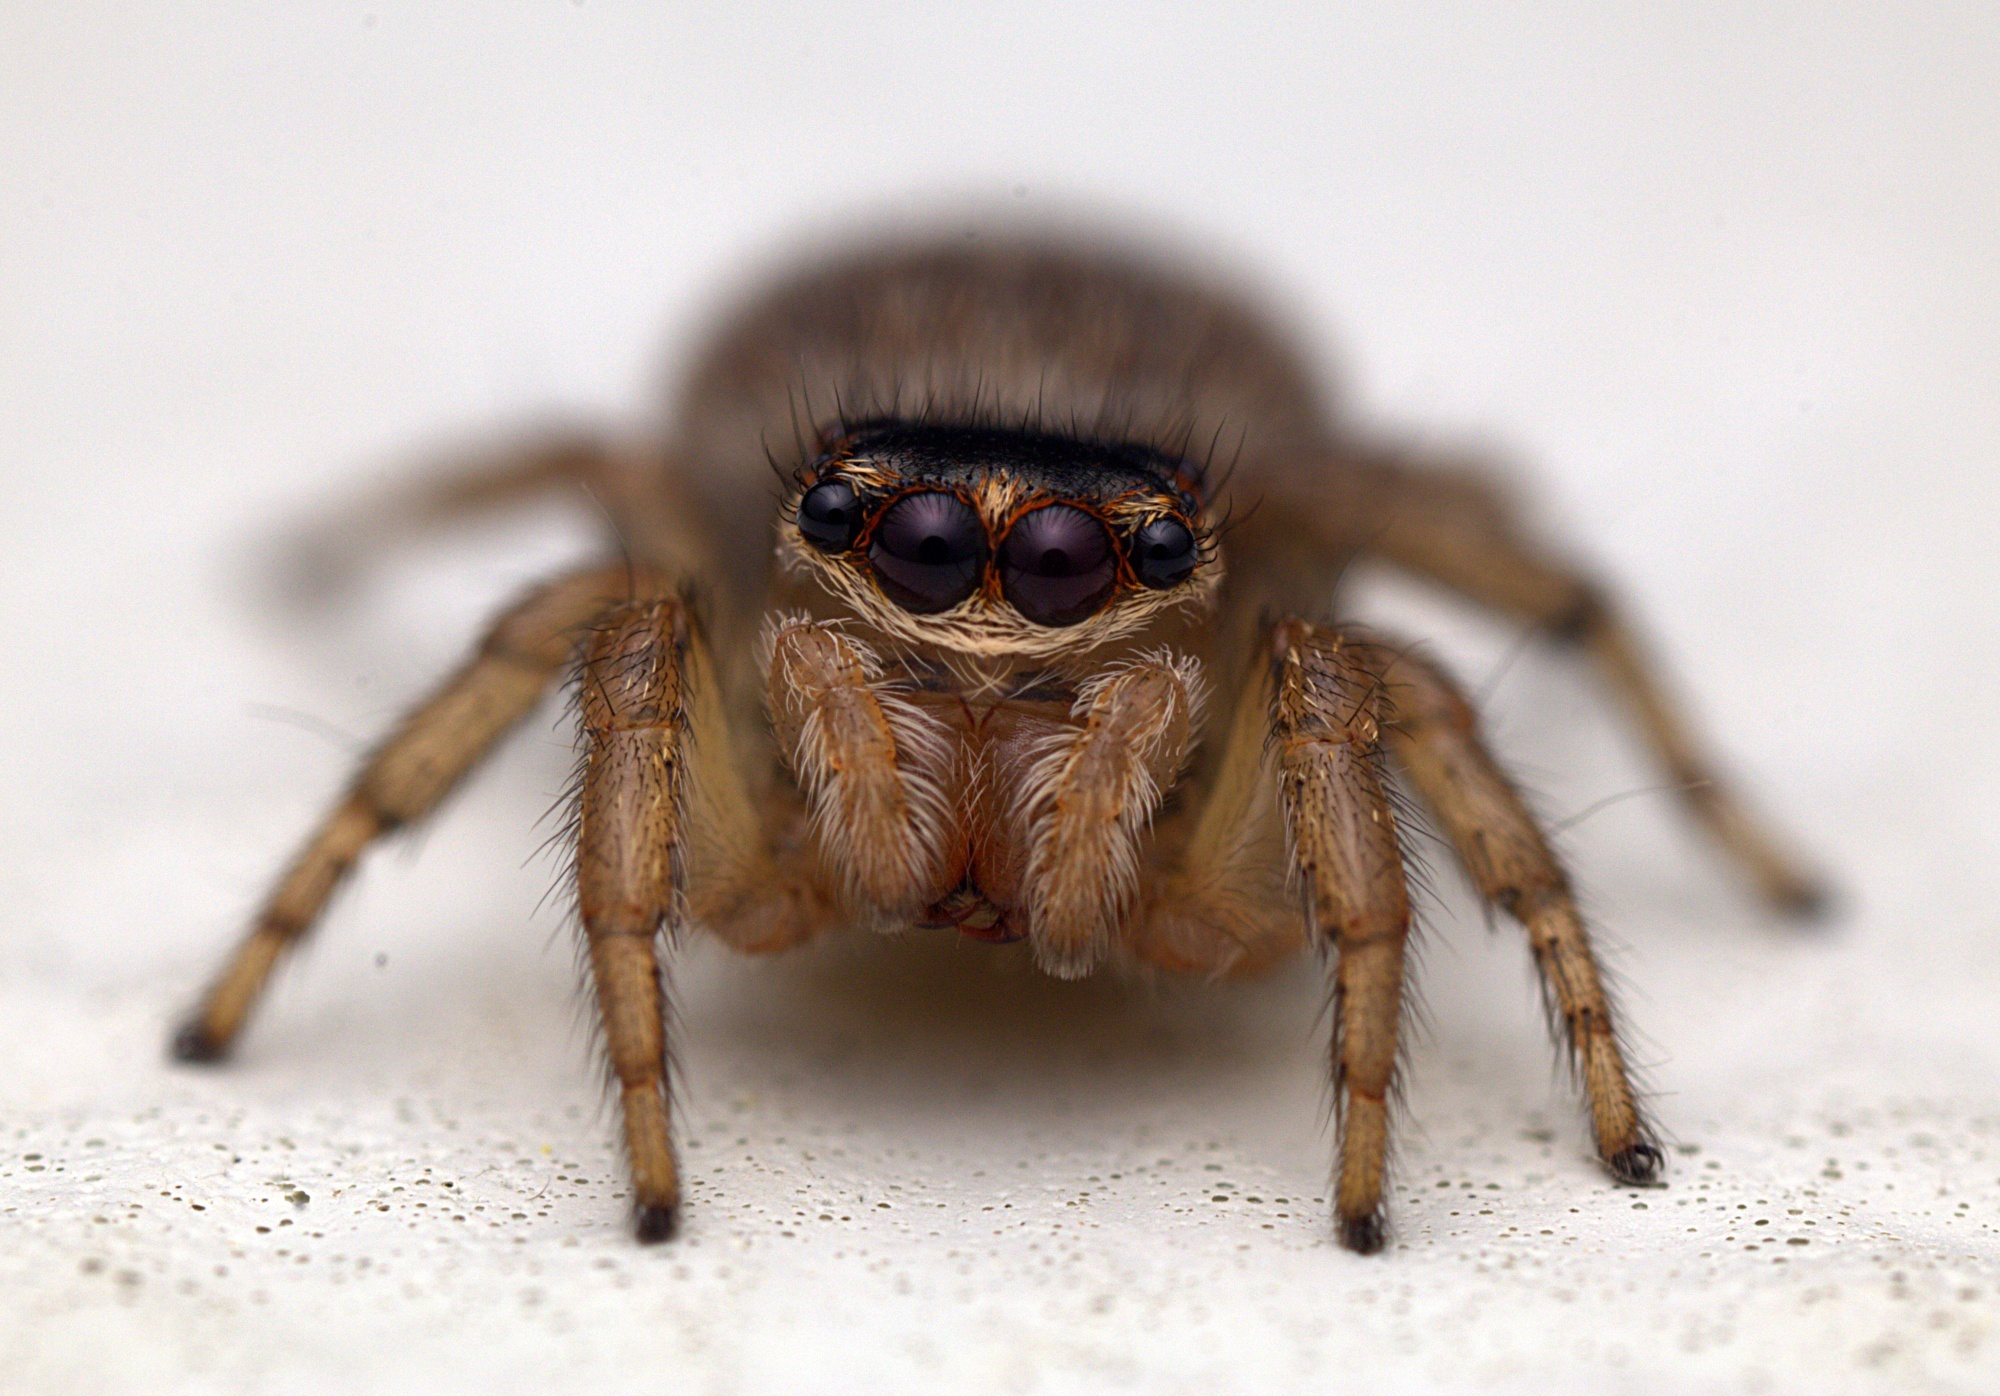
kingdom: Animalia
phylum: Arthropoda
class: Arachnida
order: Araneae
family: Salticidae
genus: Maratus
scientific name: Maratus griseus
